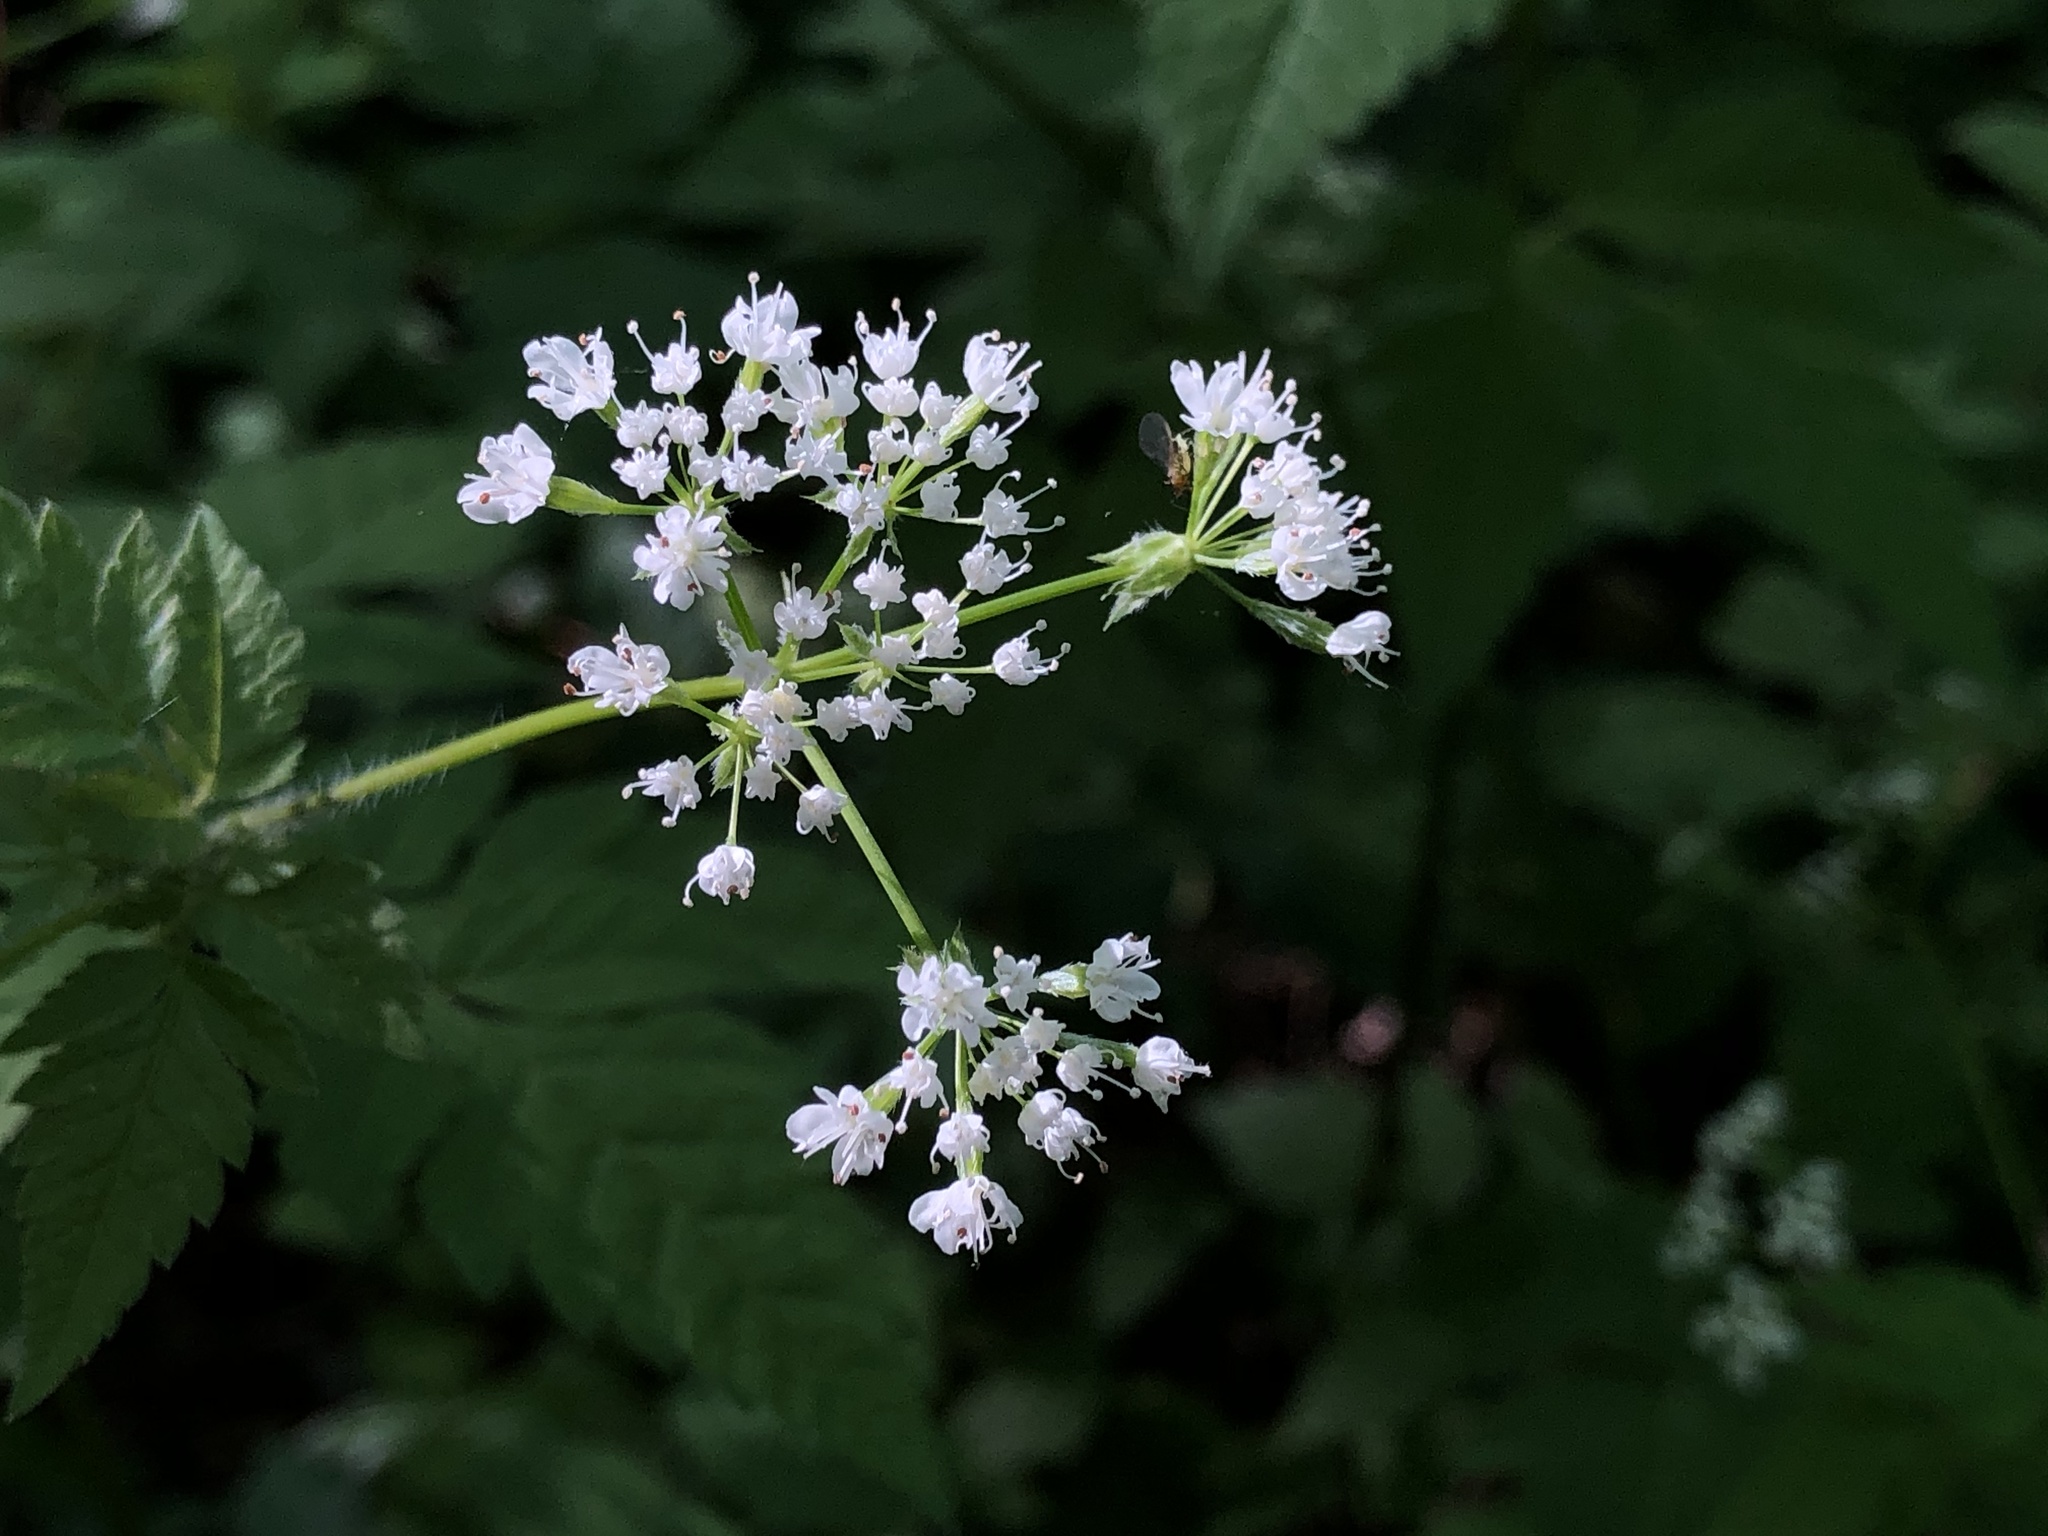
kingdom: Plantae
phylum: Tracheophyta
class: Magnoliopsida
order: Apiales
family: Apiaceae
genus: Osmorhiza
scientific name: Osmorhiza longistylis
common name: Smooth sweet cicely
